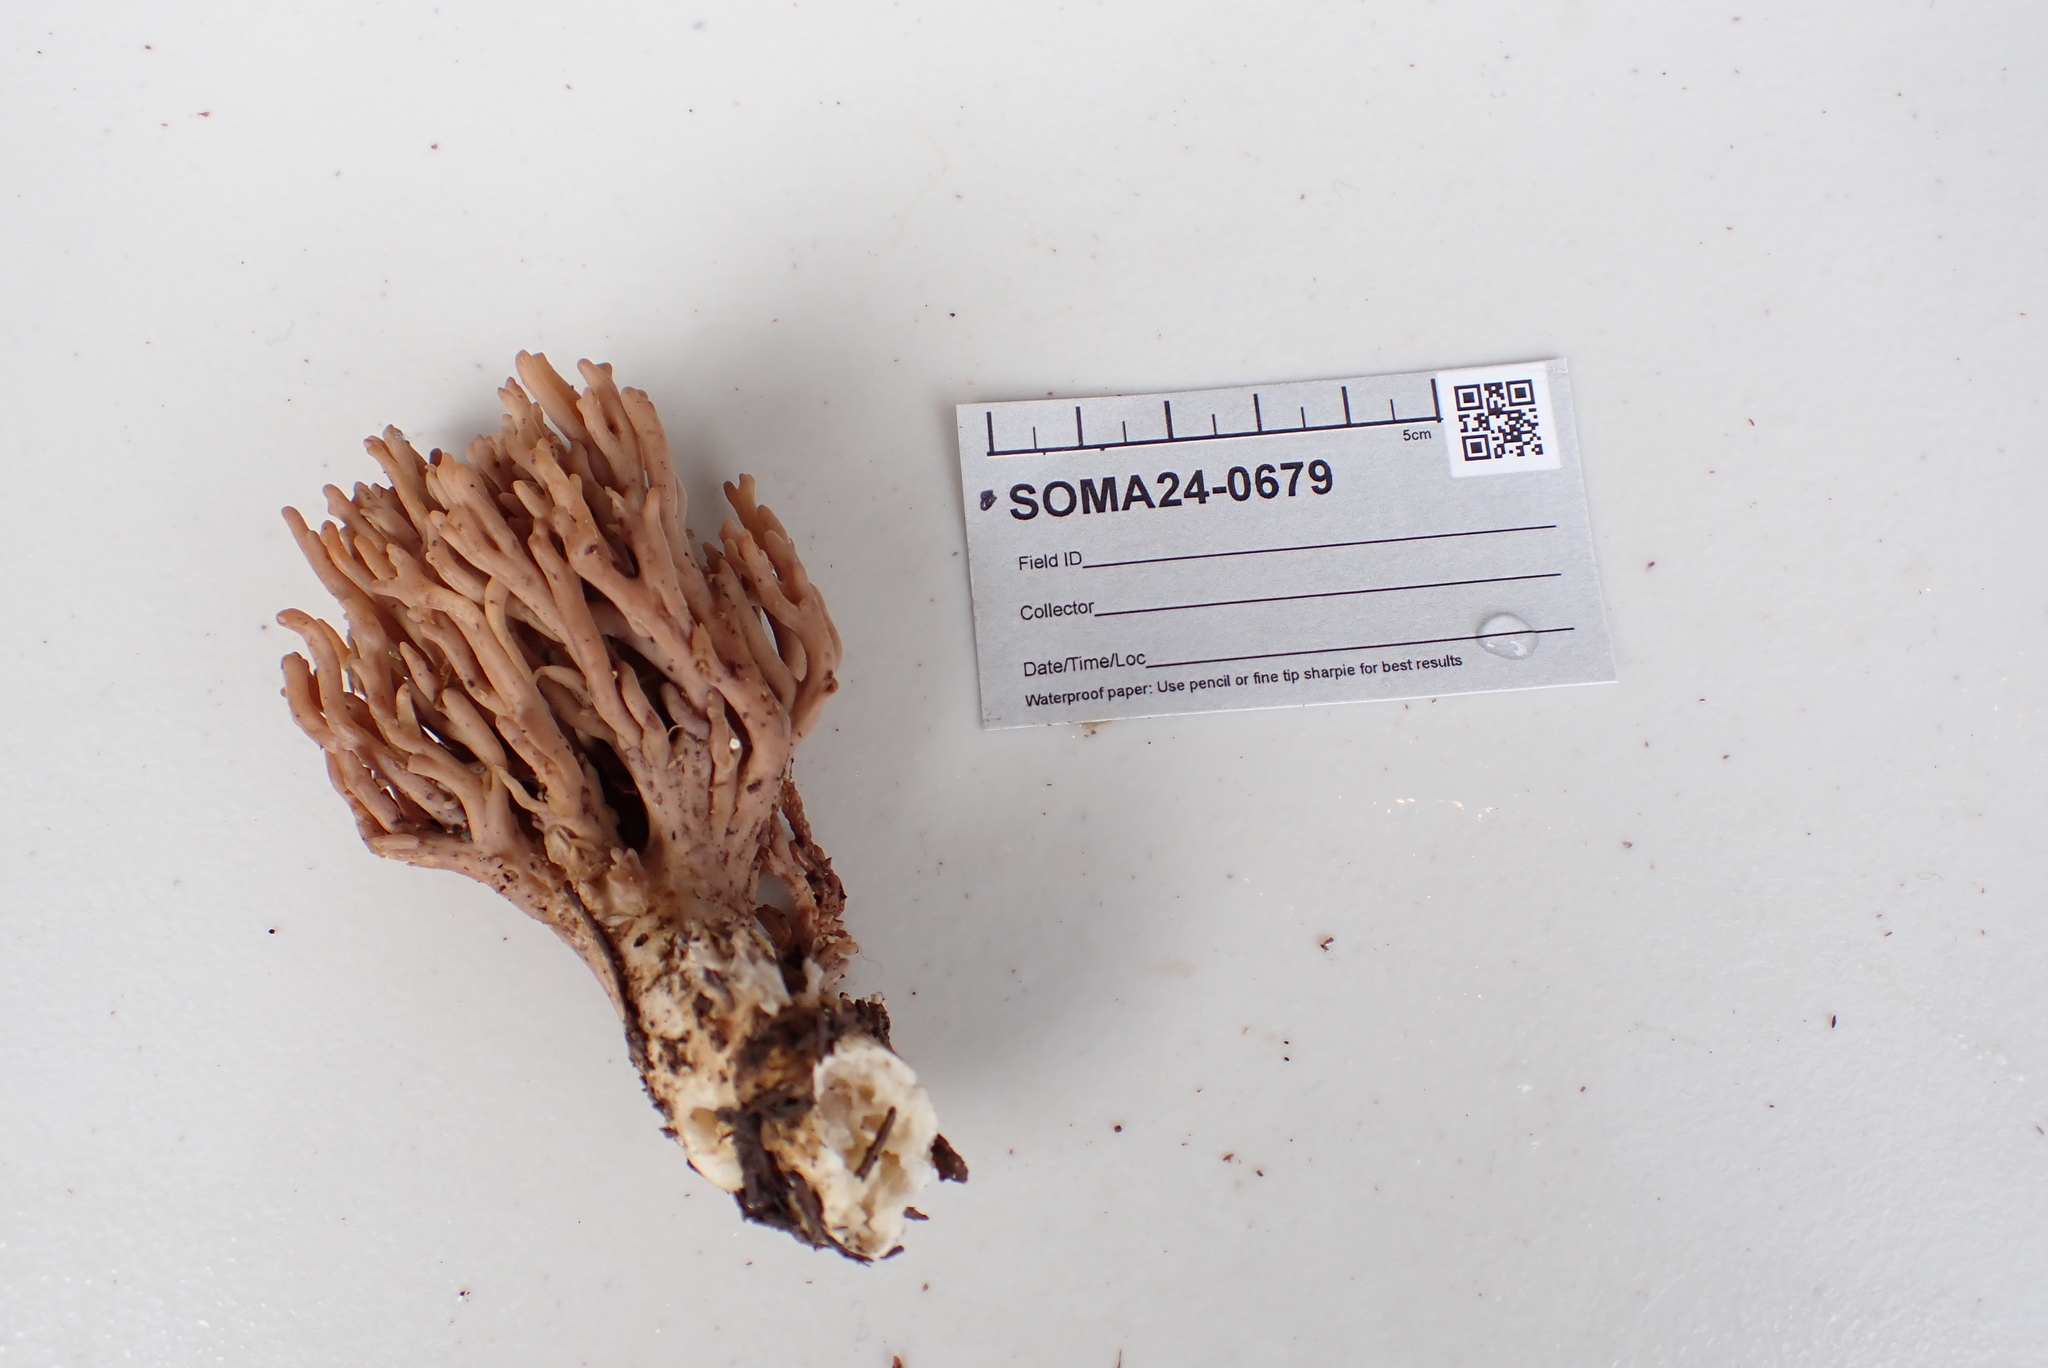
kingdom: Fungi
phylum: Basidiomycota
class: Agaricomycetes
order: Gomphales
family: Gomphaceae
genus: Ramaria
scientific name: Ramaria violaceibrunnea
